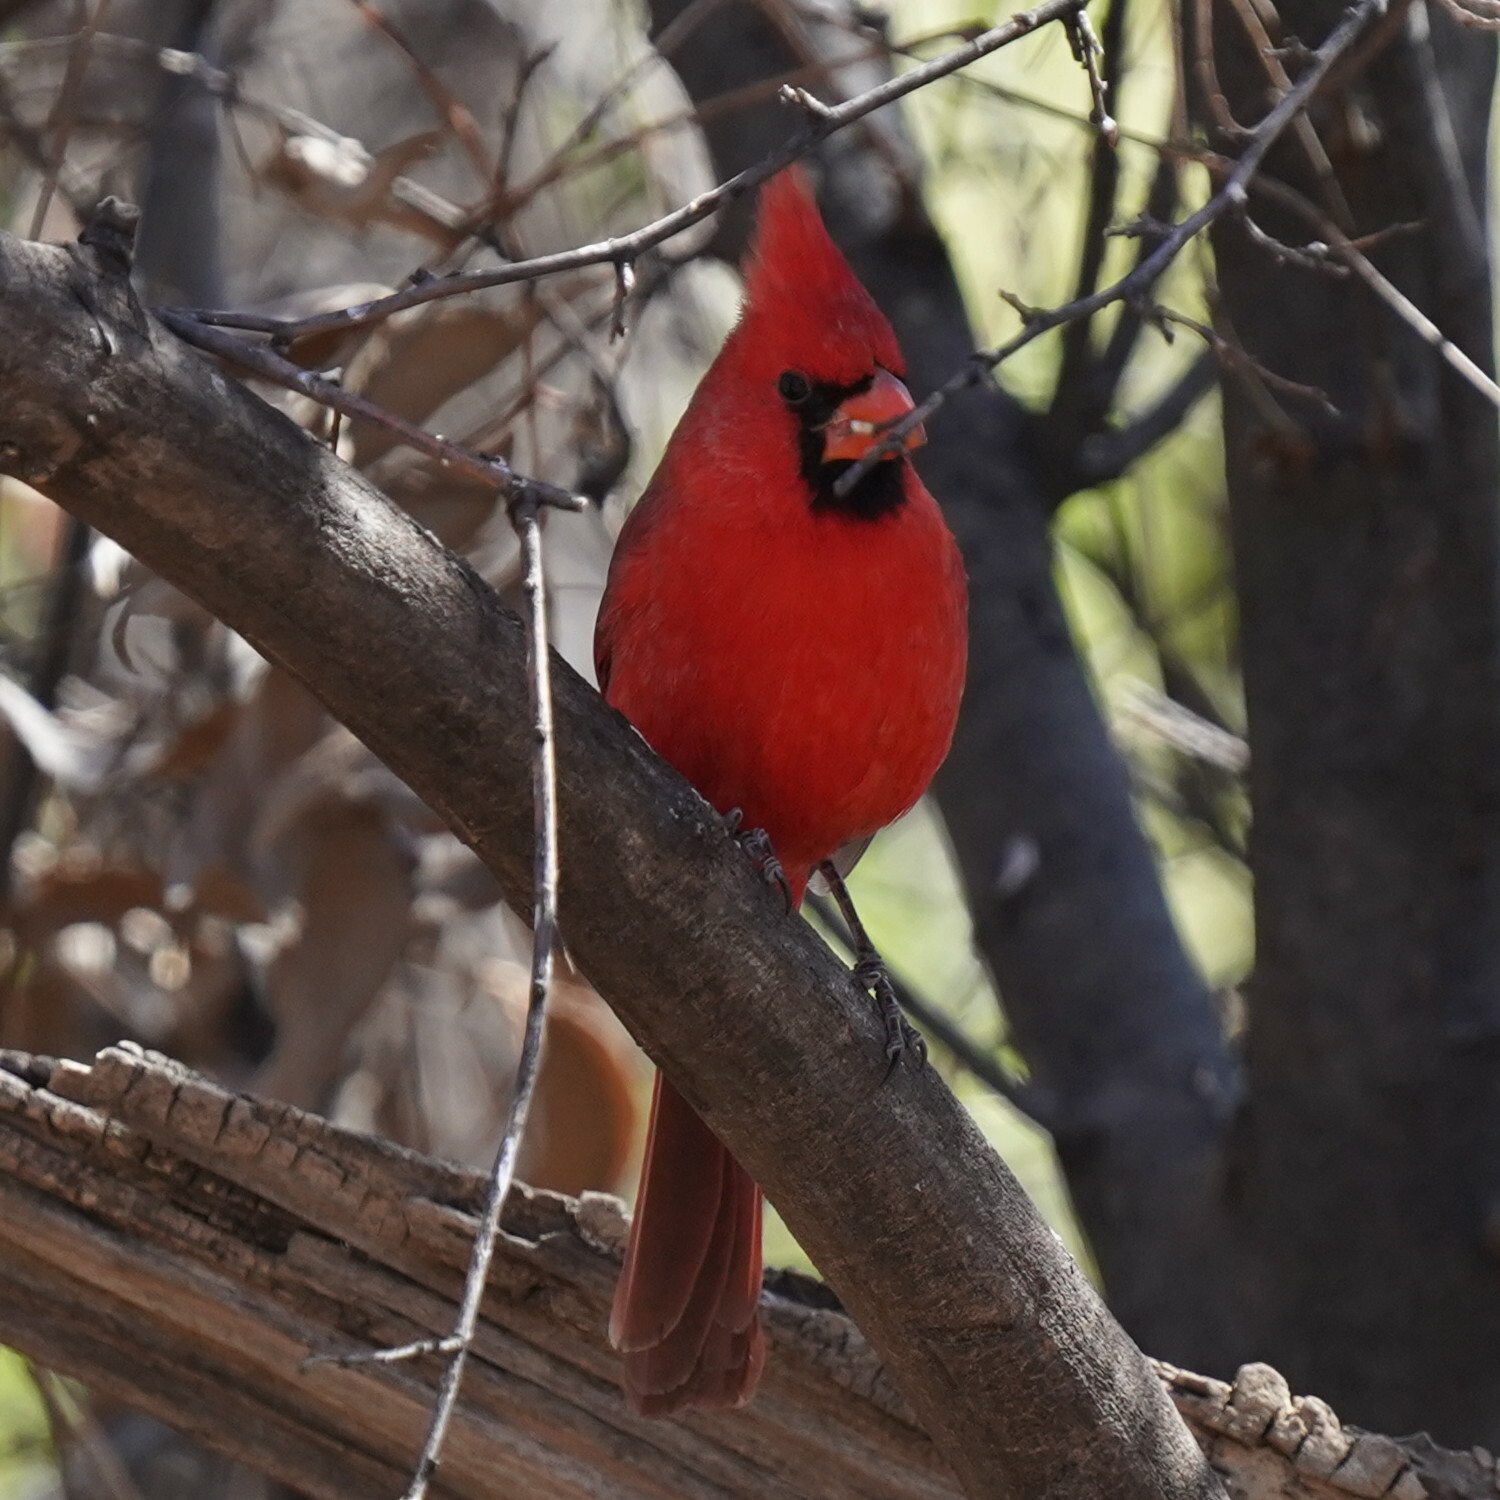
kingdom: Animalia
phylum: Chordata
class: Aves
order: Passeriformes
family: Cardinalidae
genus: Cardinalis
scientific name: Cardinalis cardinalis
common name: Northern cardinal
